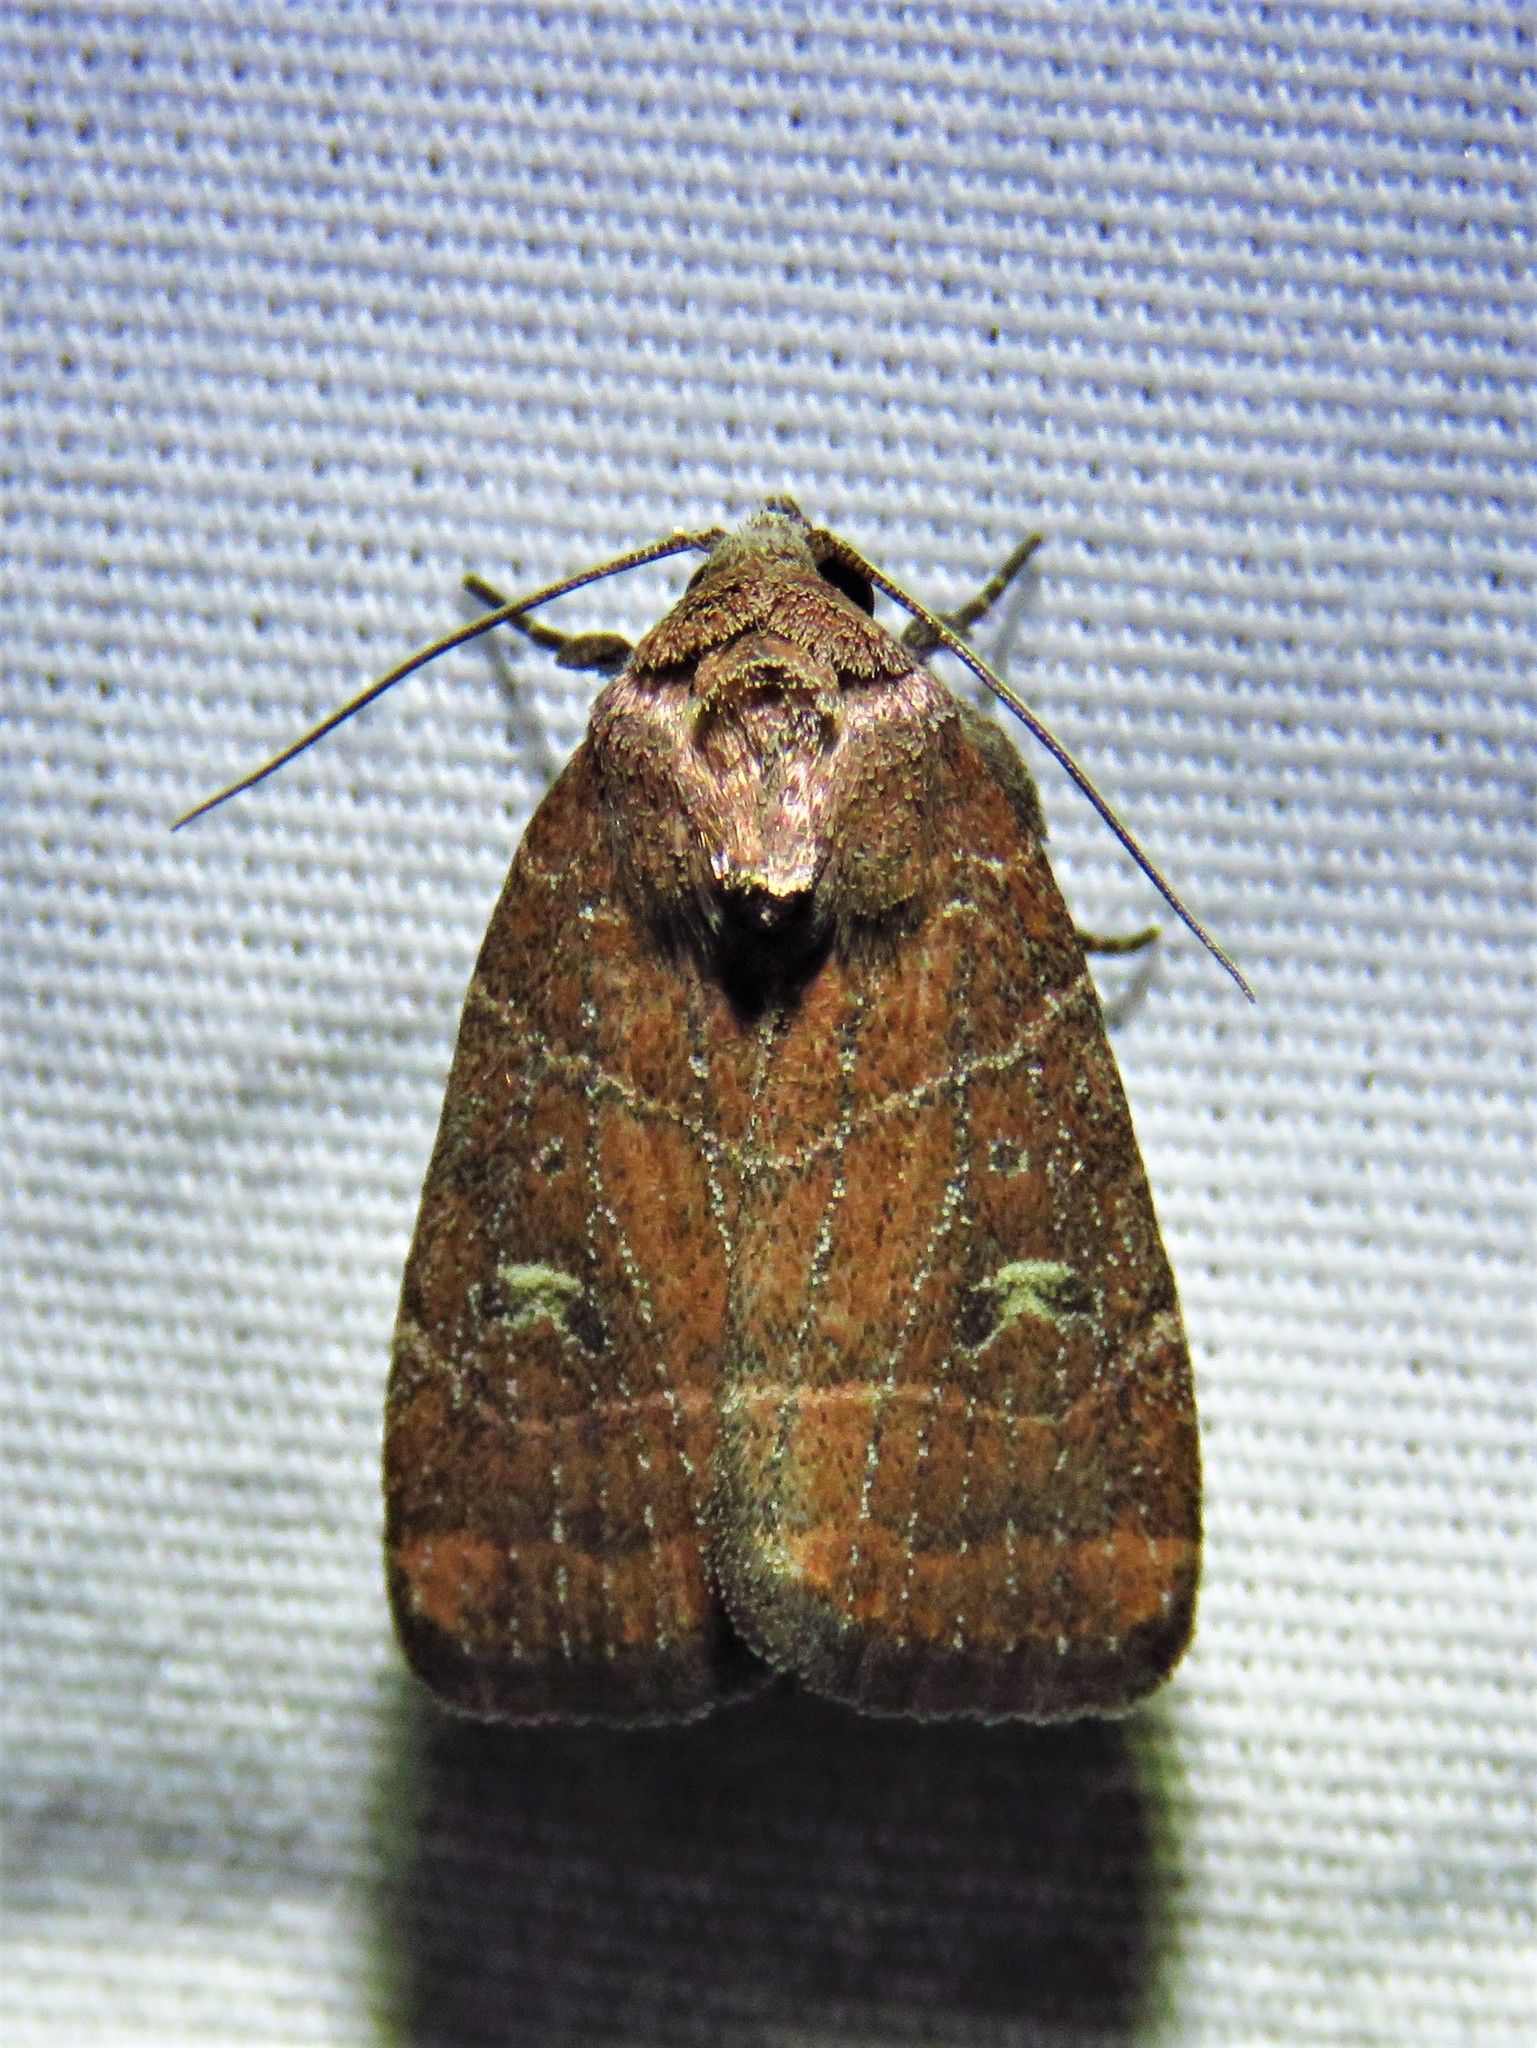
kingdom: Animalia
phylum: Arthropoda
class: Insecta
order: Lepidoptera
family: Noctuidae
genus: Elaphria
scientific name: Elaphria grata
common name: Grateful midget moth
